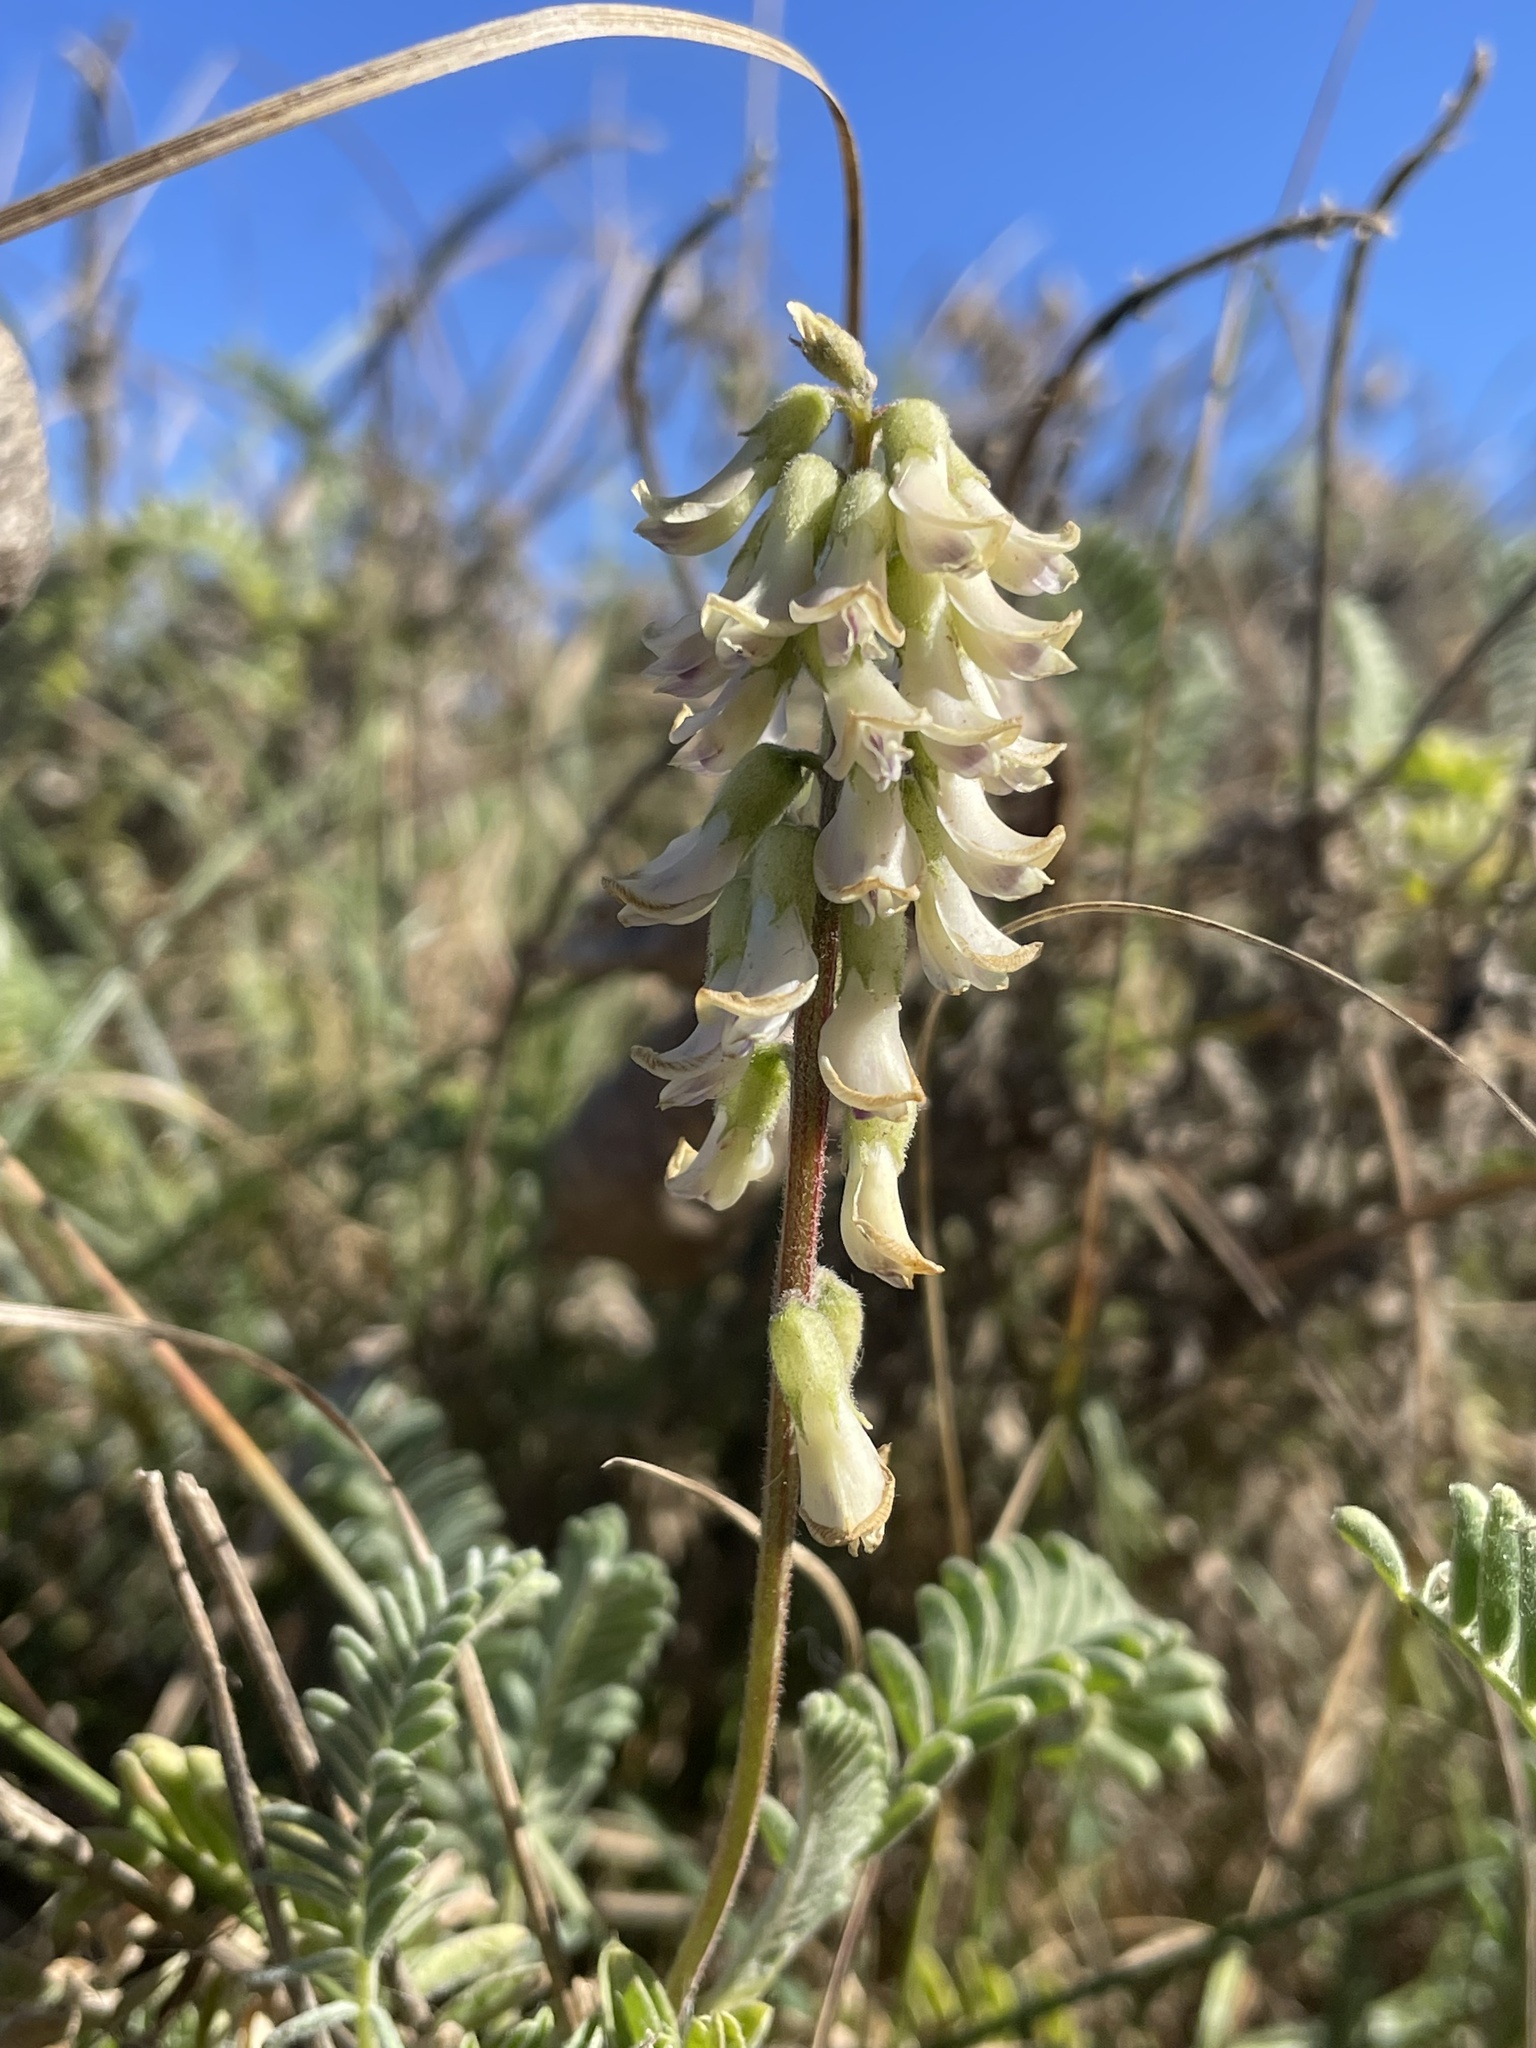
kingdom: Plantae
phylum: Tracheophyta
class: Magnoliopsida
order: Fabales
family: Fabaceae
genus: Astragalus
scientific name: Astragalus nuttallii
